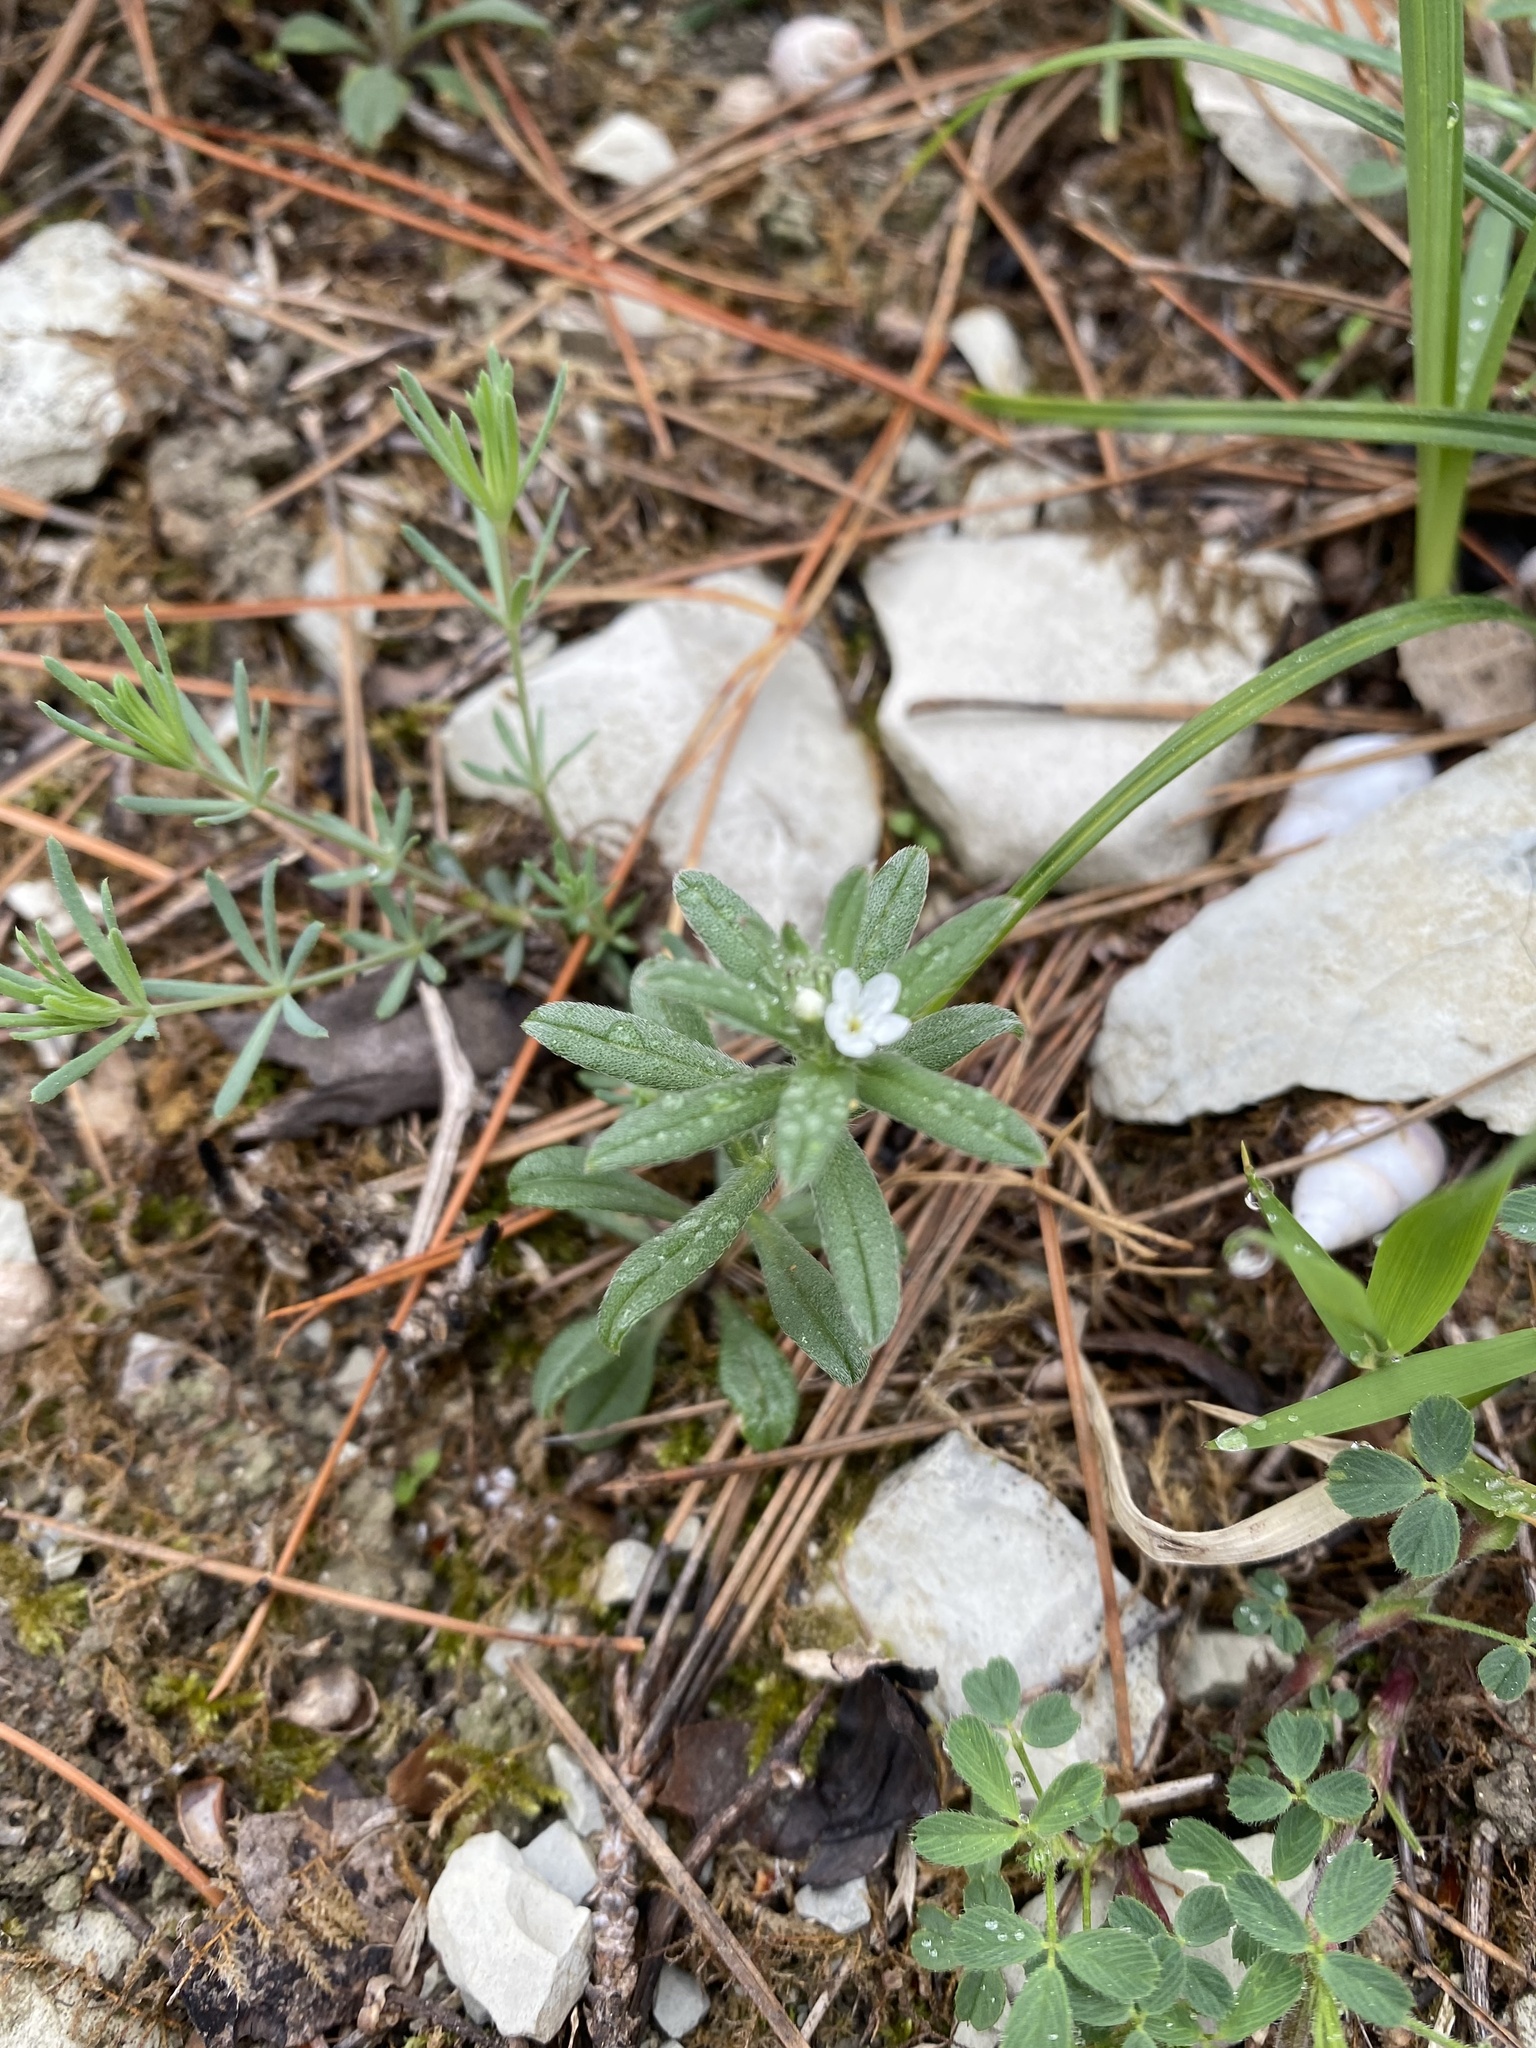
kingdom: Plantae
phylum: Tracheophyta
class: Magnoliopsida
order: Boraginales
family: Boraginaceae
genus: Buglossoides
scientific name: Buglossoides arvensis
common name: Corn gromwell
